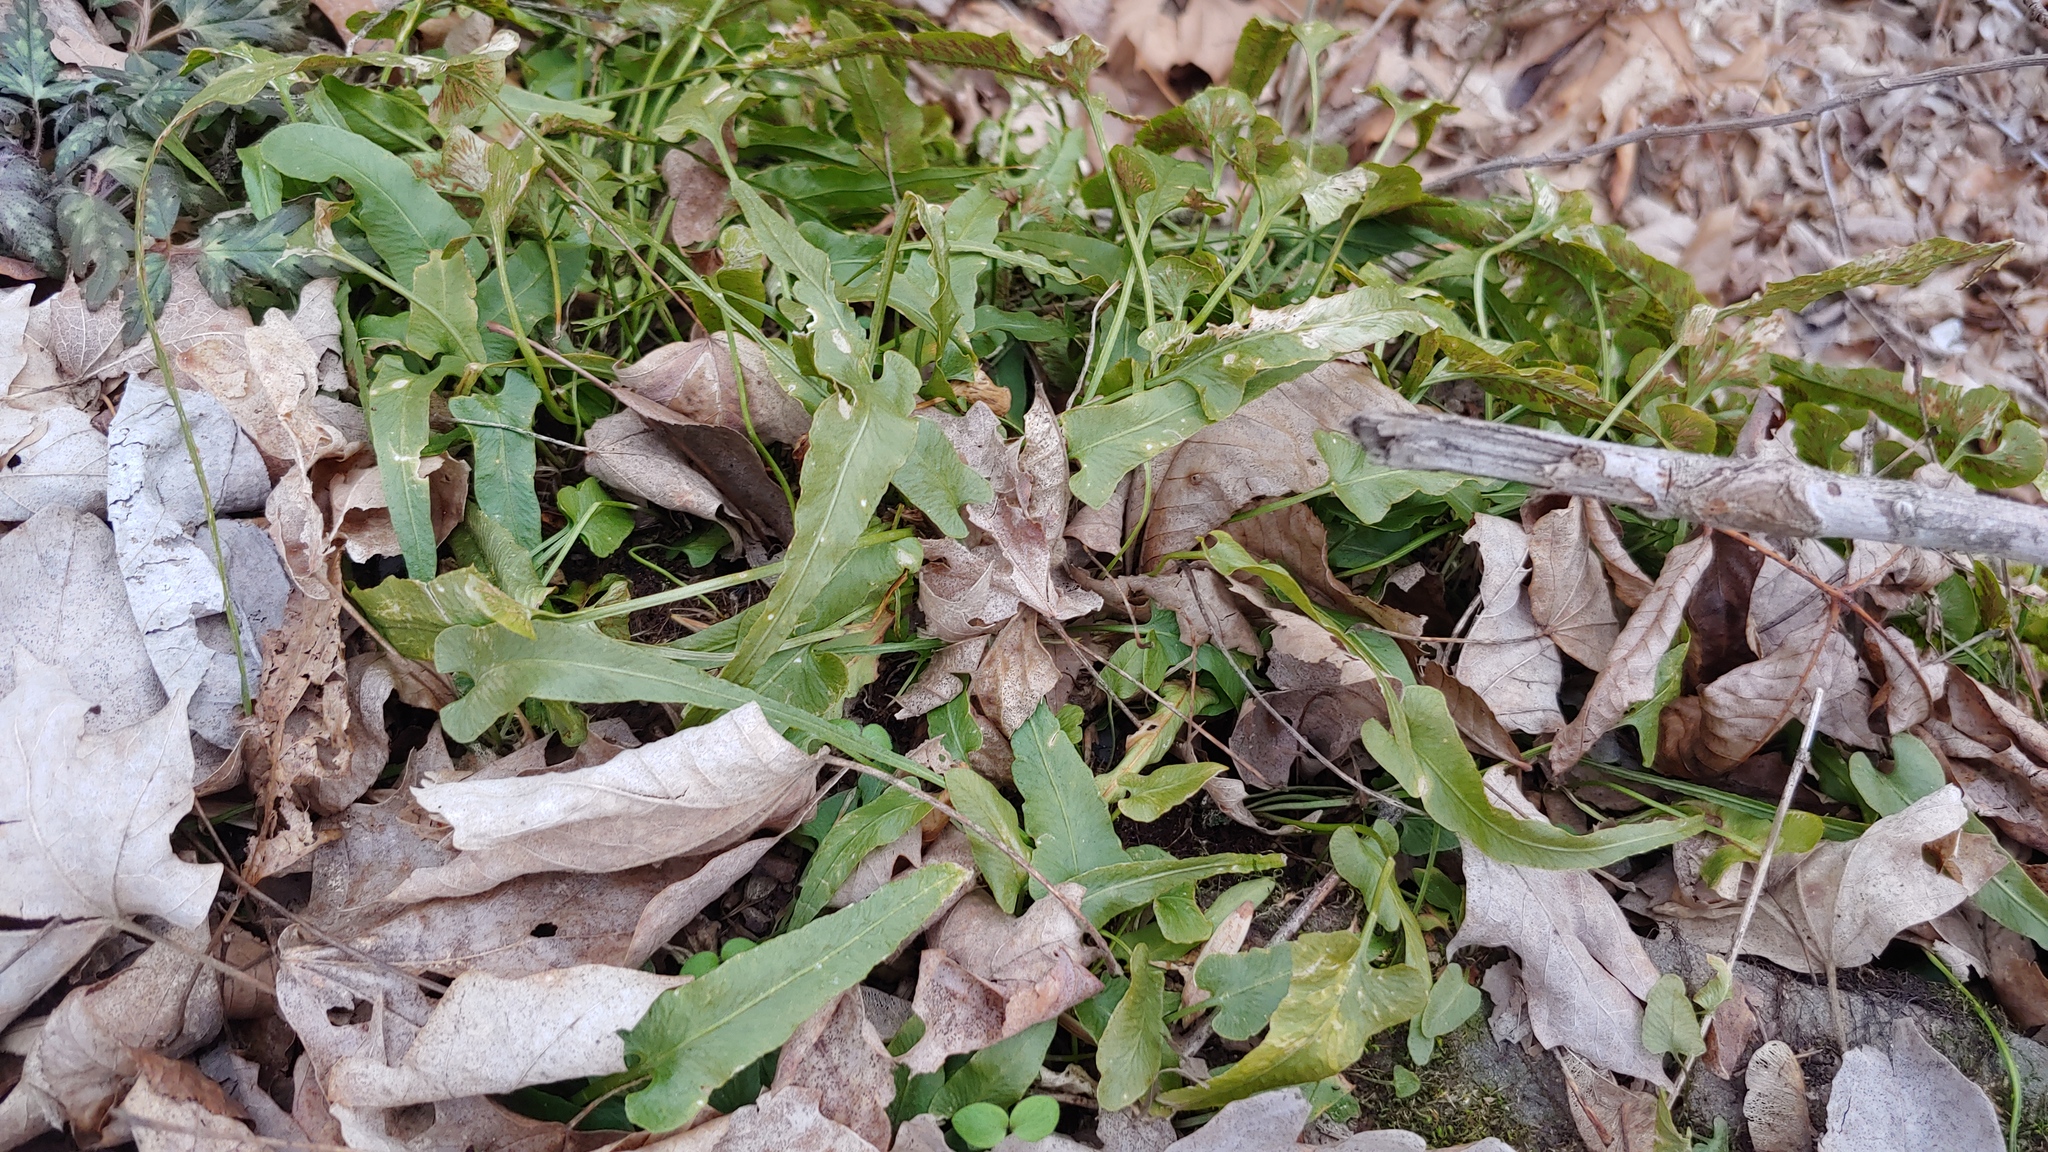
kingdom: Plantae
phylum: Tracheophyta
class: Polypodiopsida
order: Polypodiales
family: Aspleniaceae
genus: Asplenium
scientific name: Asplenium rhizophyllum
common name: Walking fern
